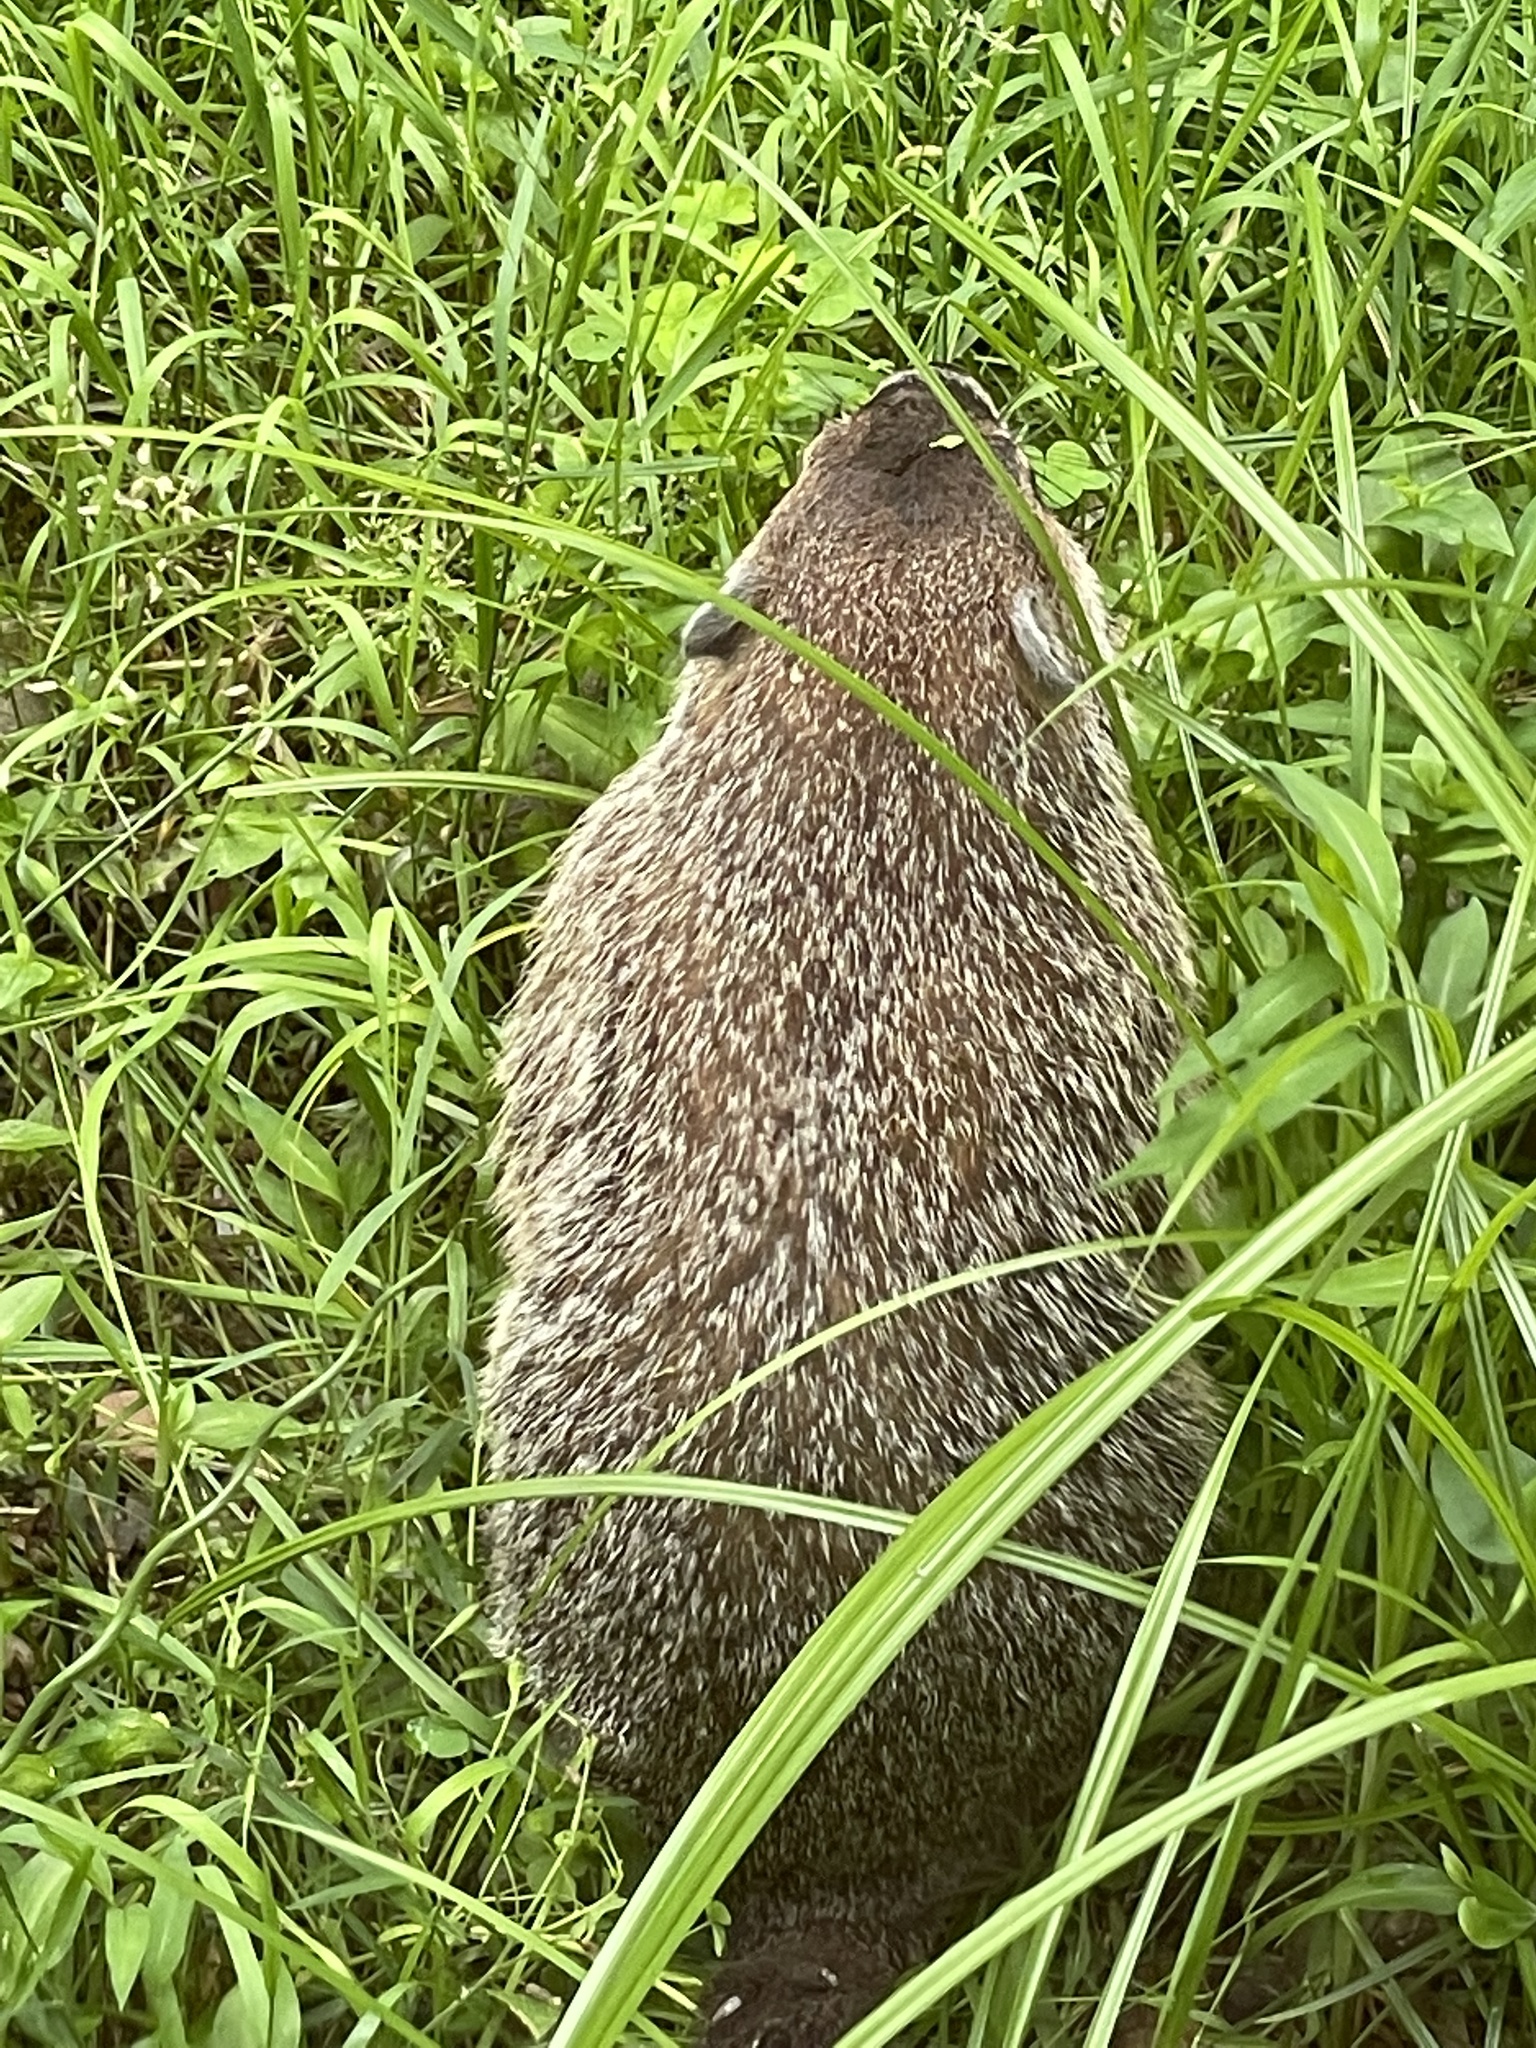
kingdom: Animalia
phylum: Chordata
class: Mammalia
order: Rodentia
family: Sciuridae
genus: Marmota
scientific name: Marmota monax
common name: Groundhog
